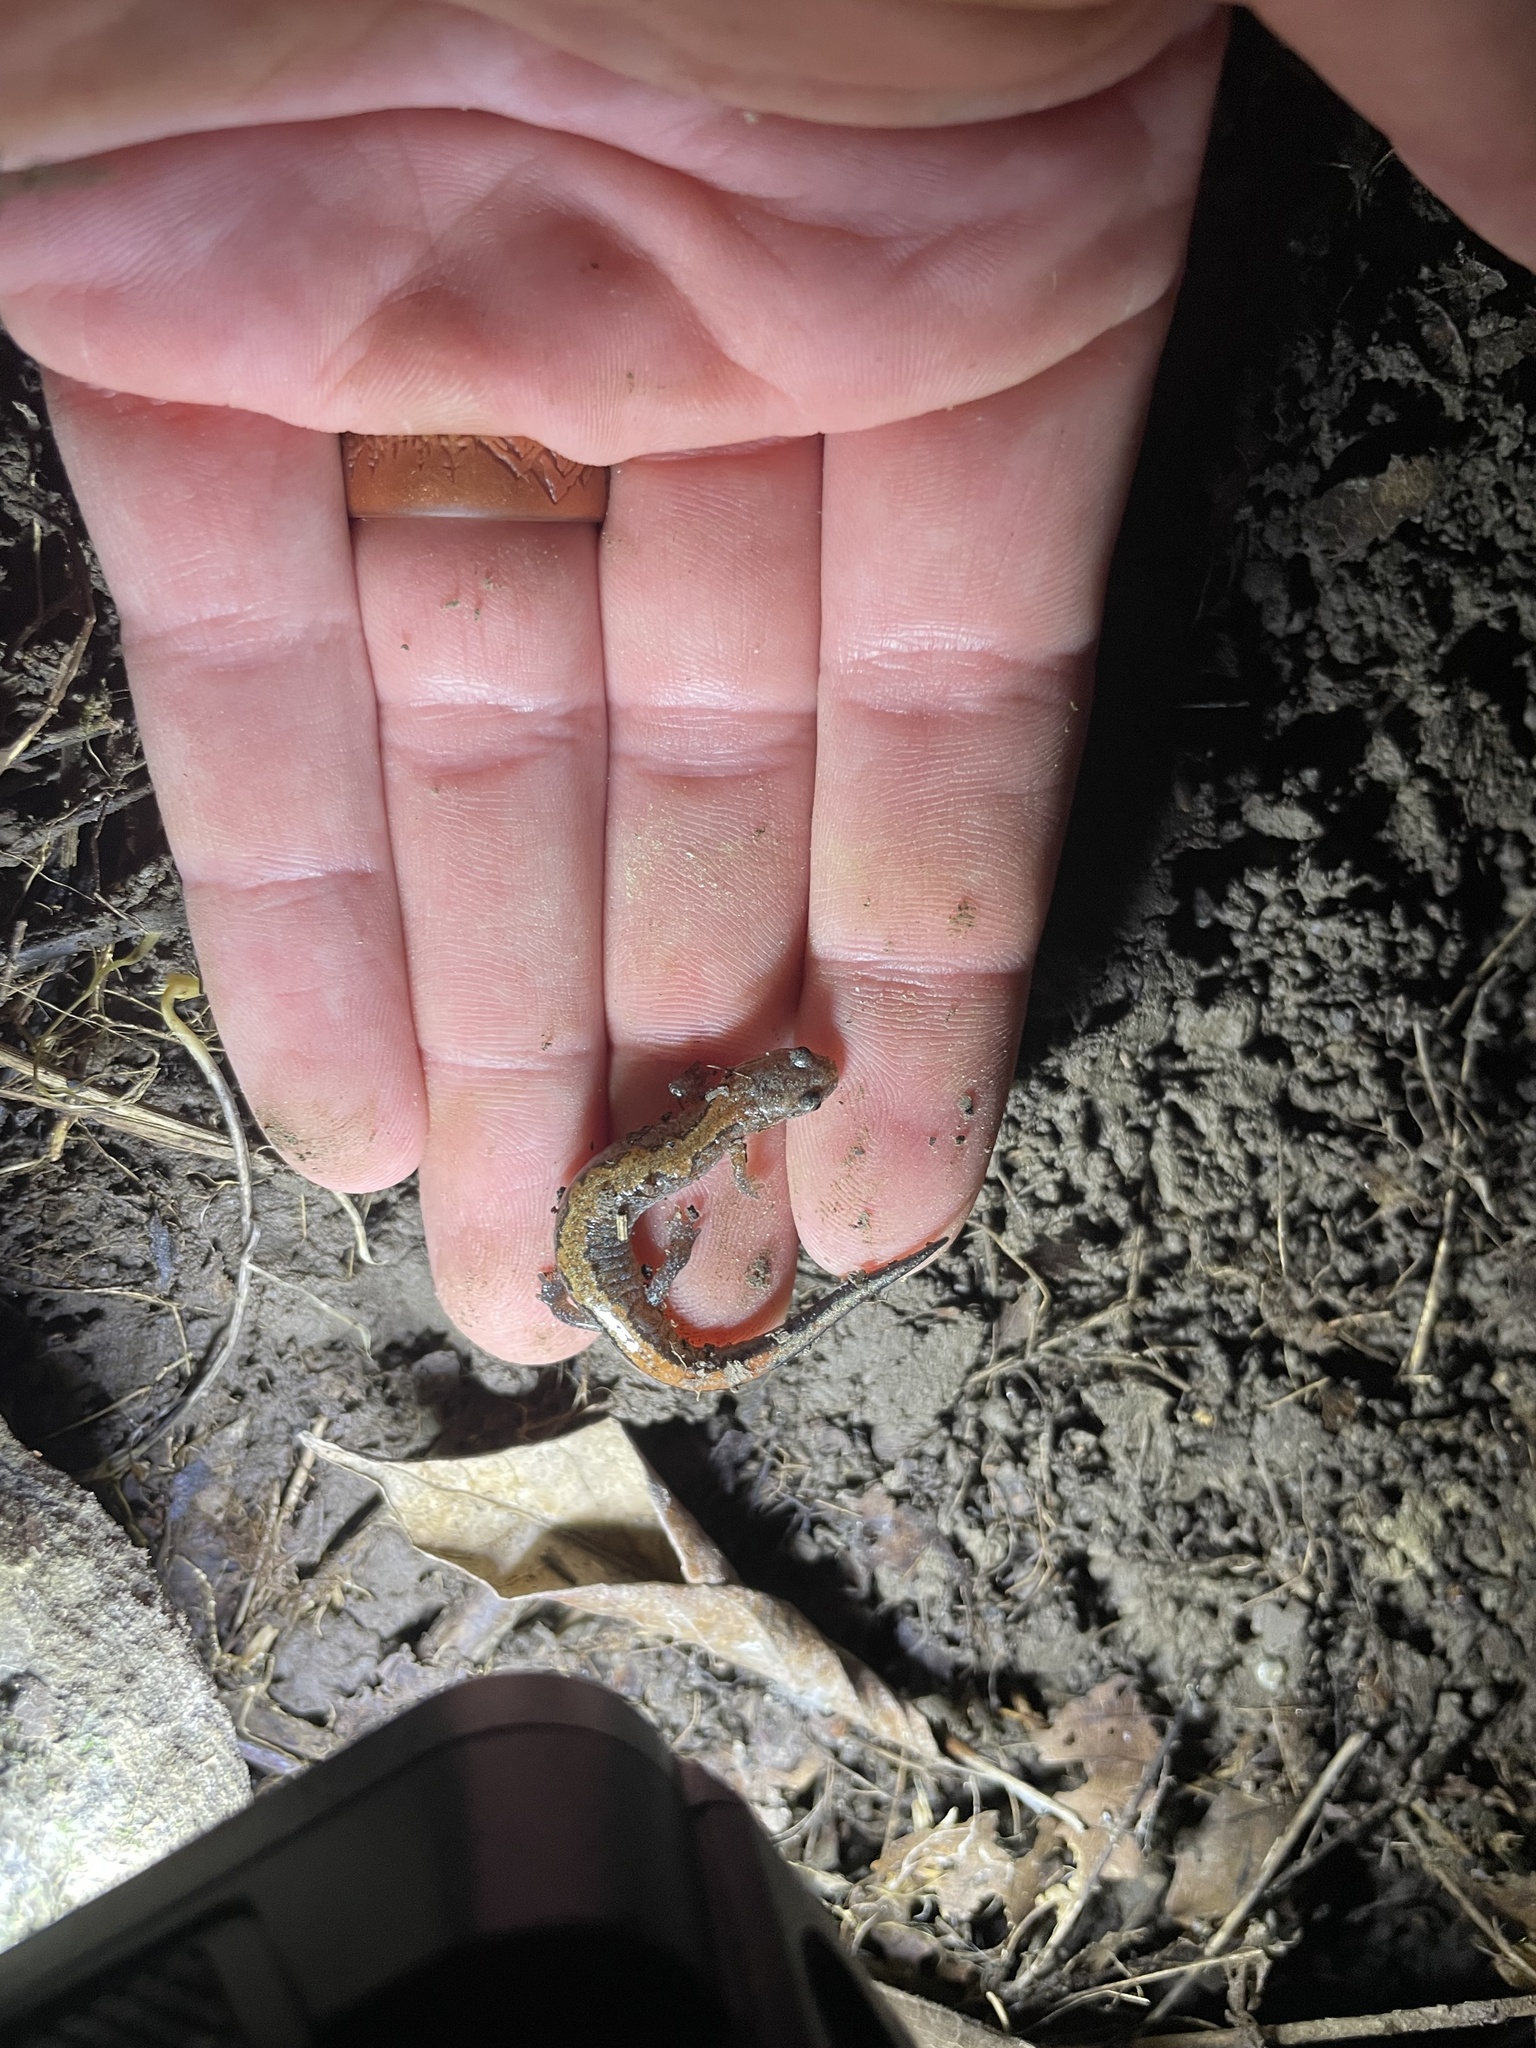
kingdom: Animalia
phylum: Chordata
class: Amphibia
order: Caudata
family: Plethodontidae
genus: Plethodon
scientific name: Plethodon dorsalis
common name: Northern zigzag salamander
